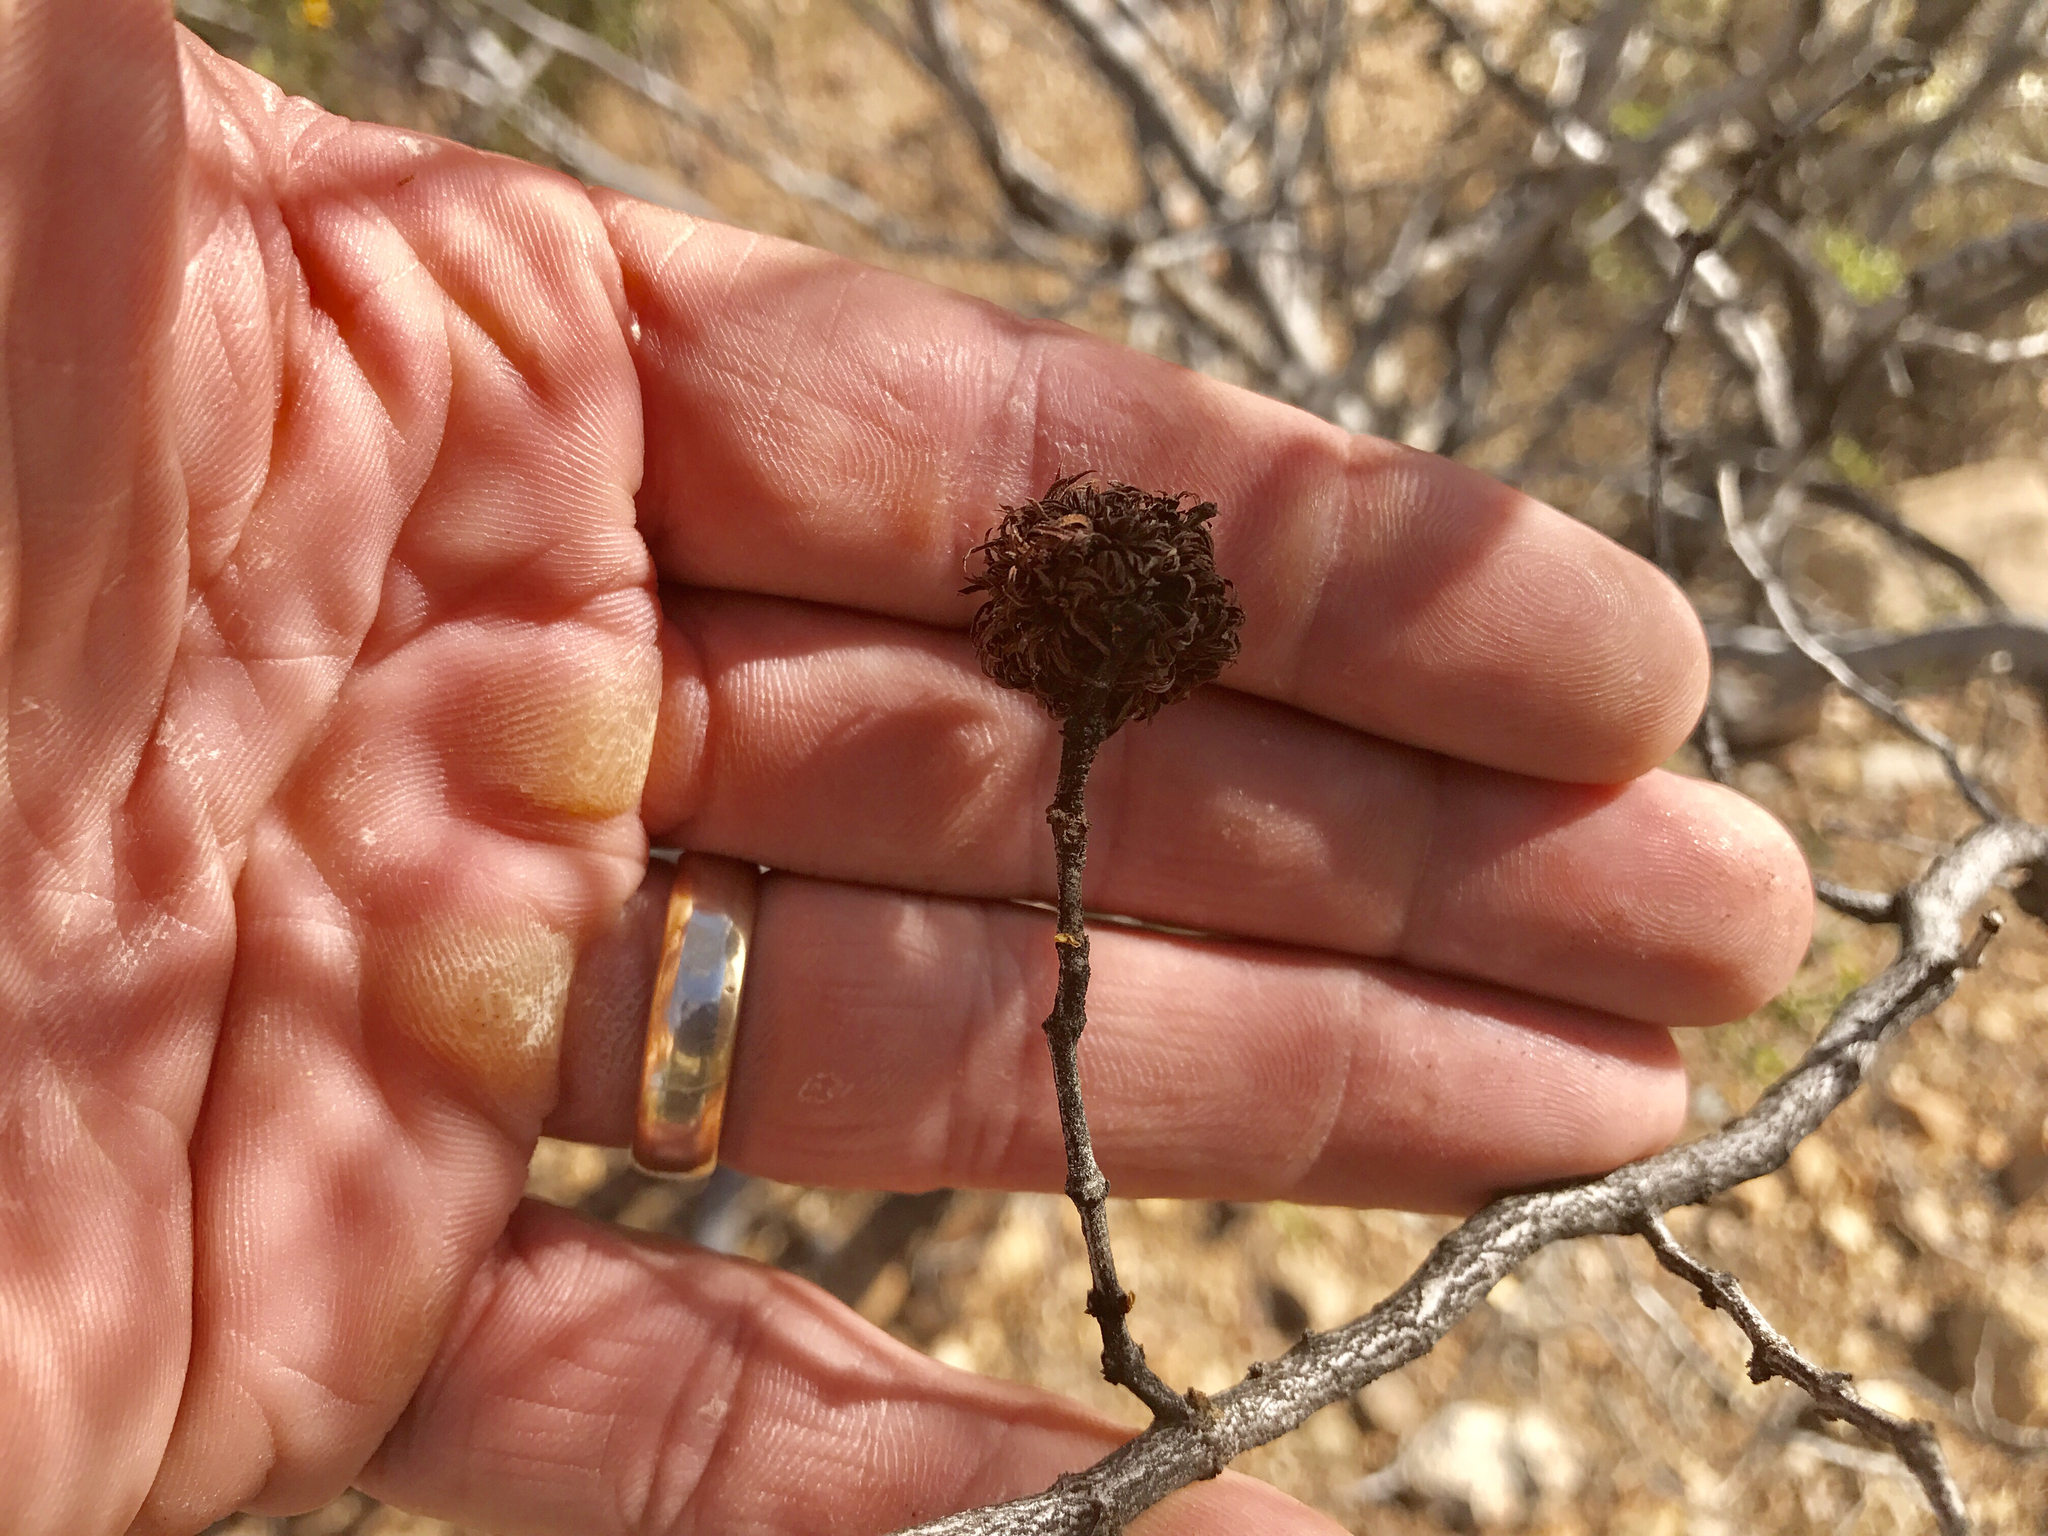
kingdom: Animalia
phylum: Arthropoda
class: Insecta
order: Diptera
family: Cecidomyiidae
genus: Asphondylia
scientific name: Asphondylia auripila
